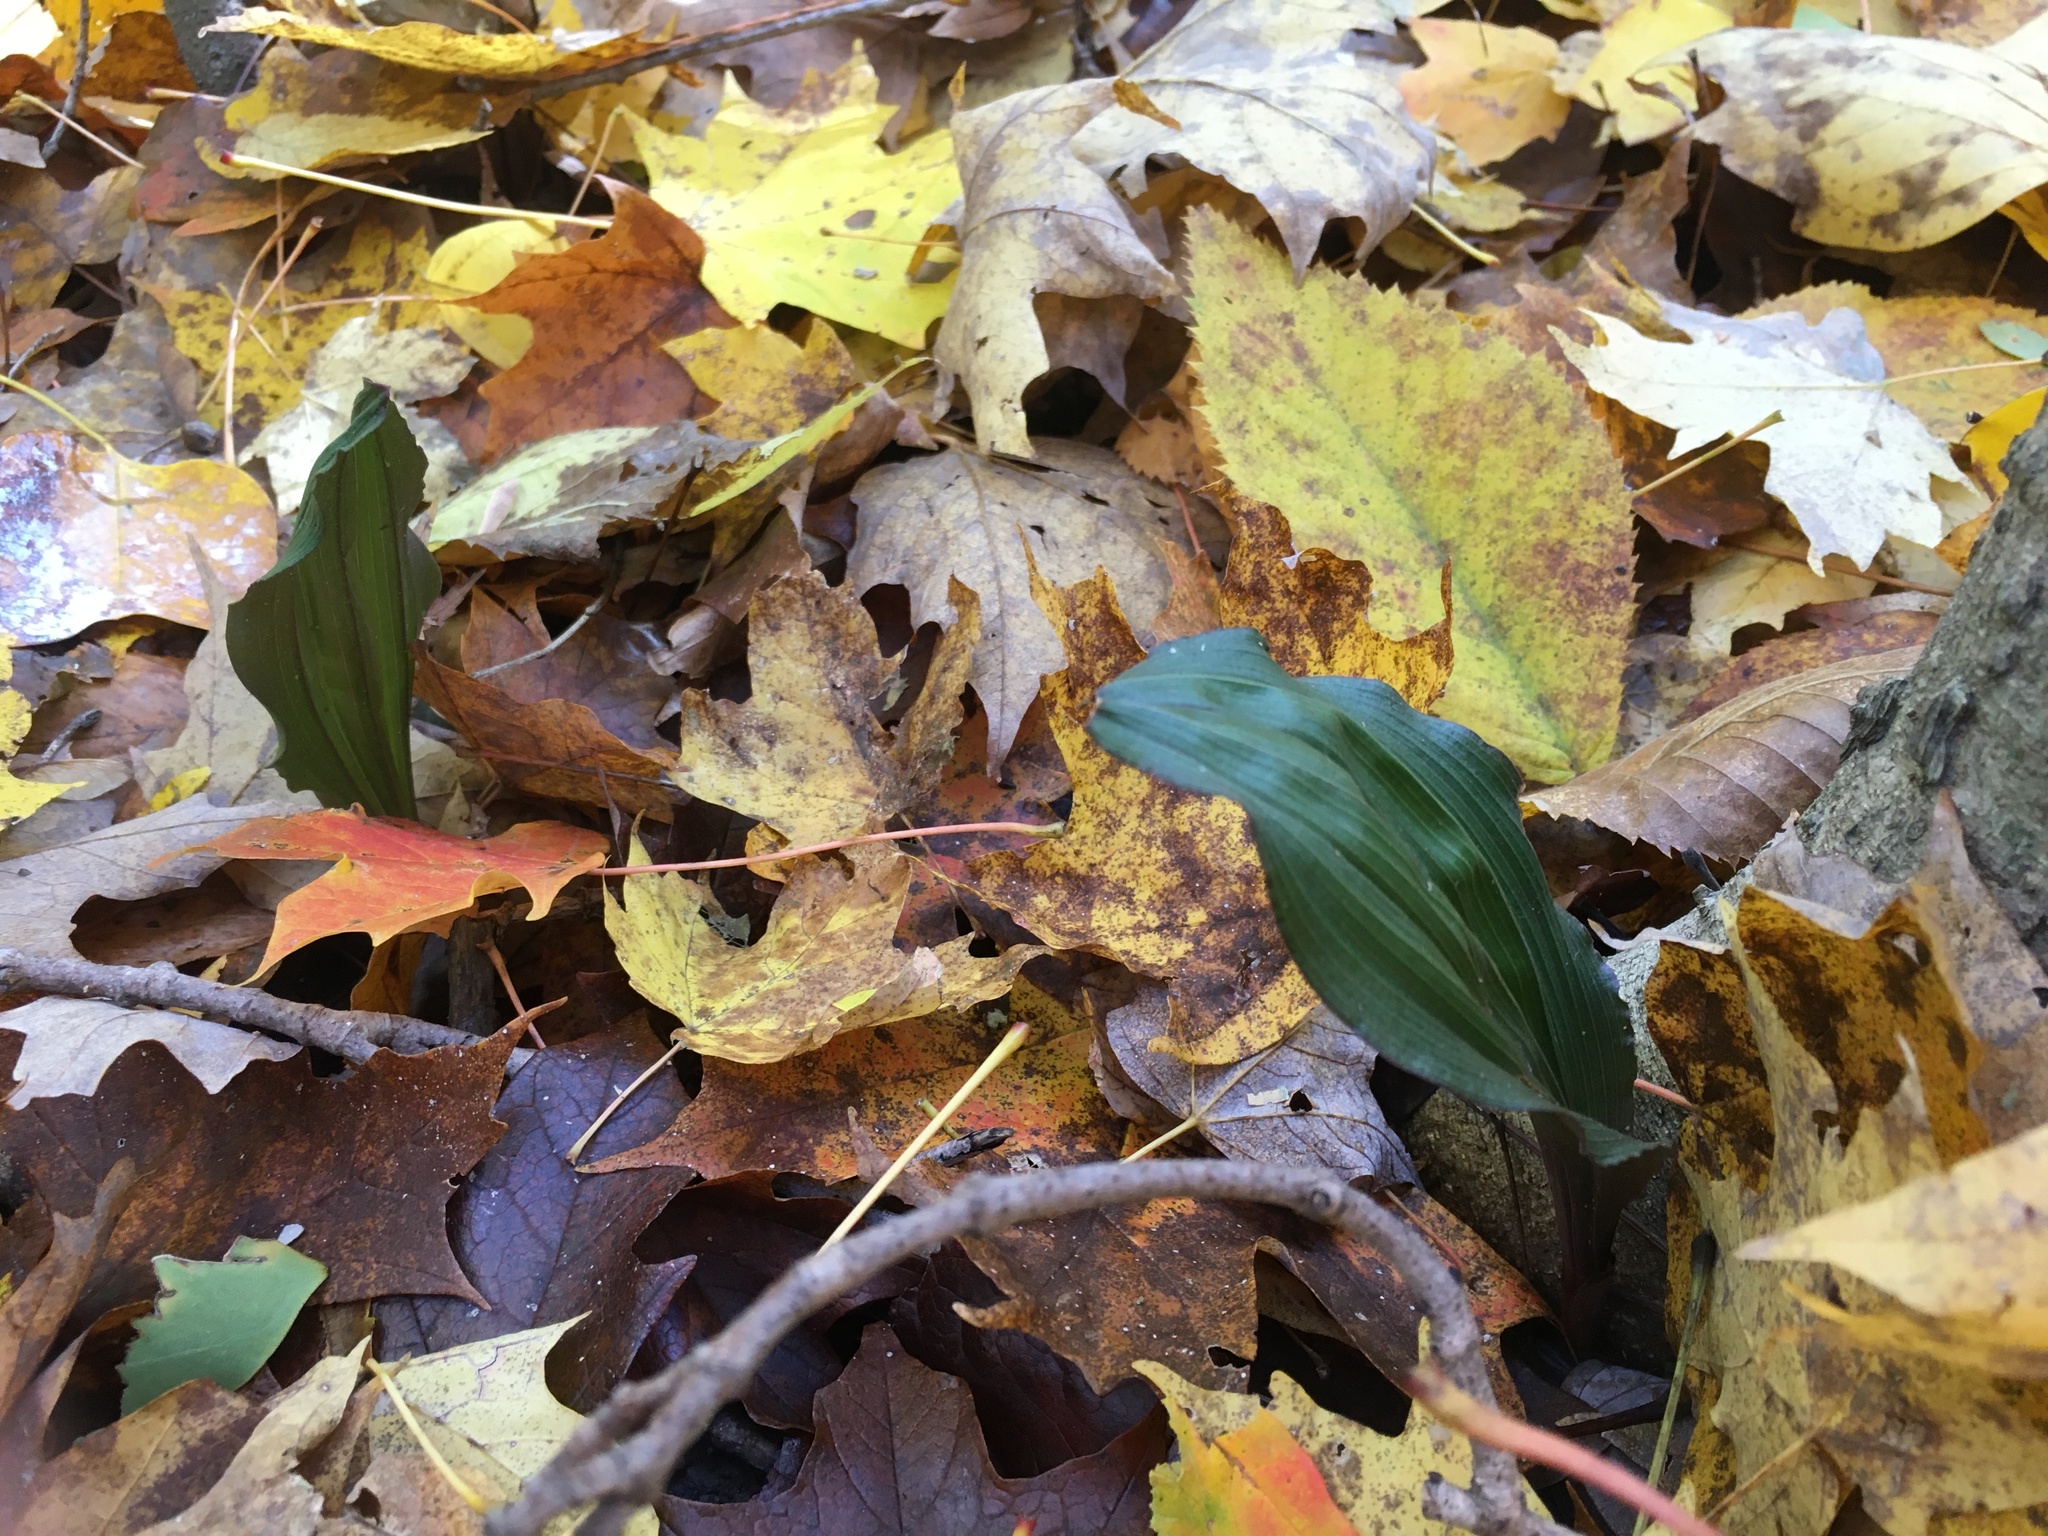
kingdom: Plantae
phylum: Tracheophyta
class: Liliopsida
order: Asparagales
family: Orchidaceae
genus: Aplectrum
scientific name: Aplectrum hyemale
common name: Adam-and-eve
